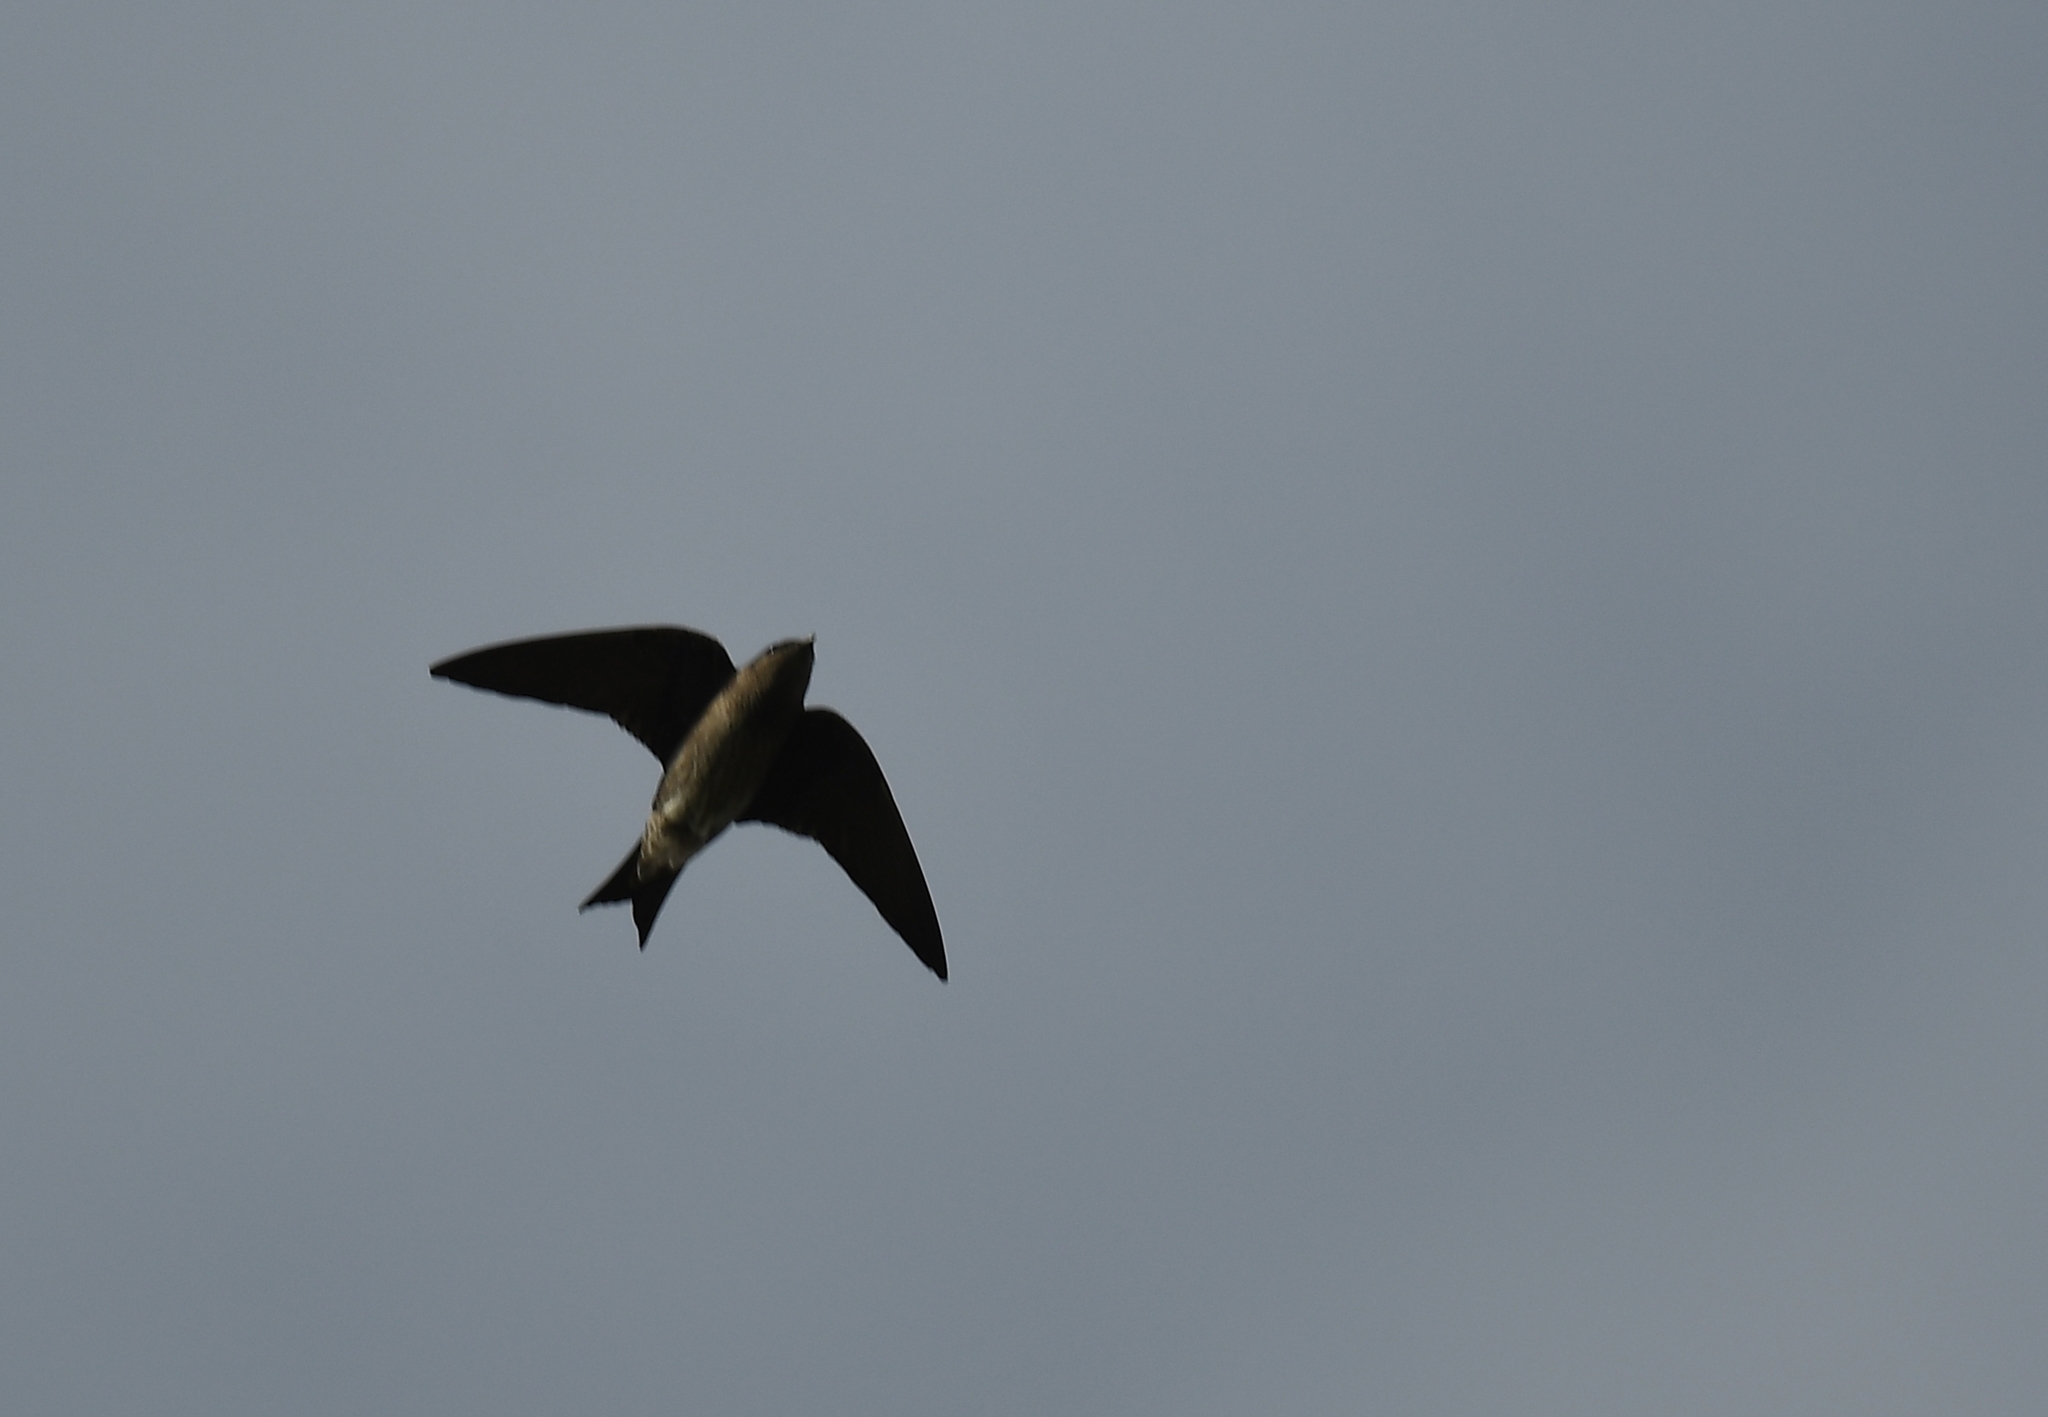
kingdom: Animalia
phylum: Chordata
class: Aves
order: Passeriformes
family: Hirundinidae
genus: Progne
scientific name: Progne subis
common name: Purple martin
